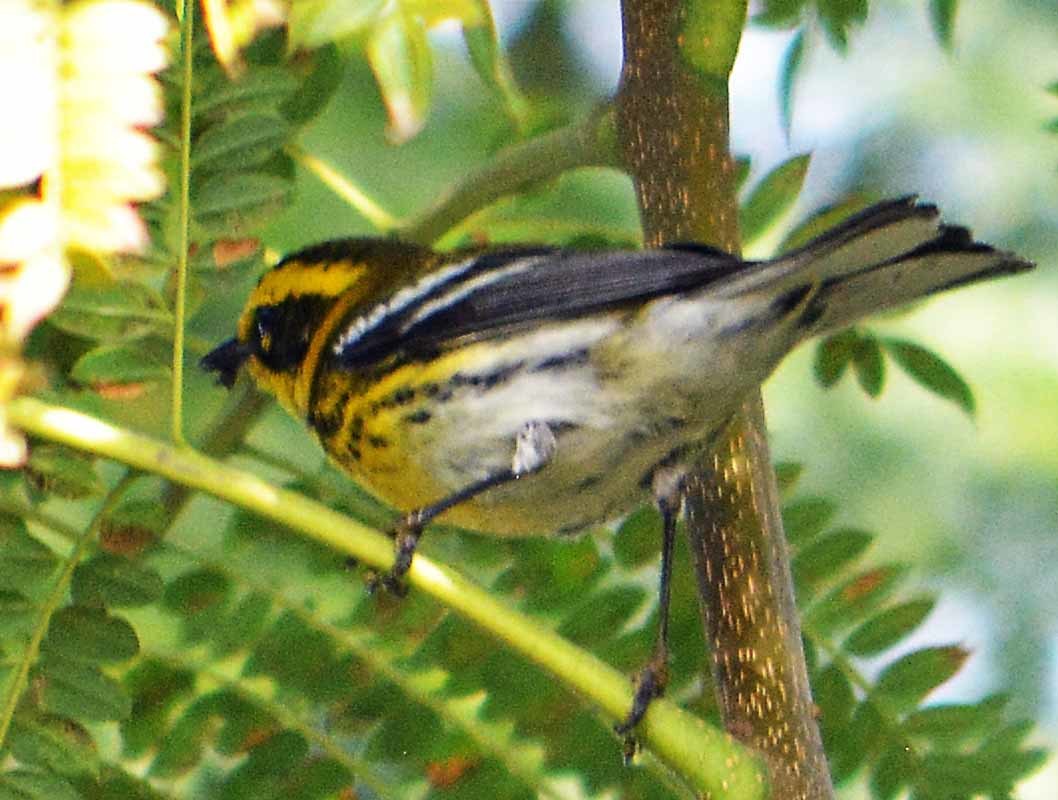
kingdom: Animalia
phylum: Chordata
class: Aves
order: Passeriformes
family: Parulidae
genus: Setophaga
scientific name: Setophaga townsendi
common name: Townsend's warbler
